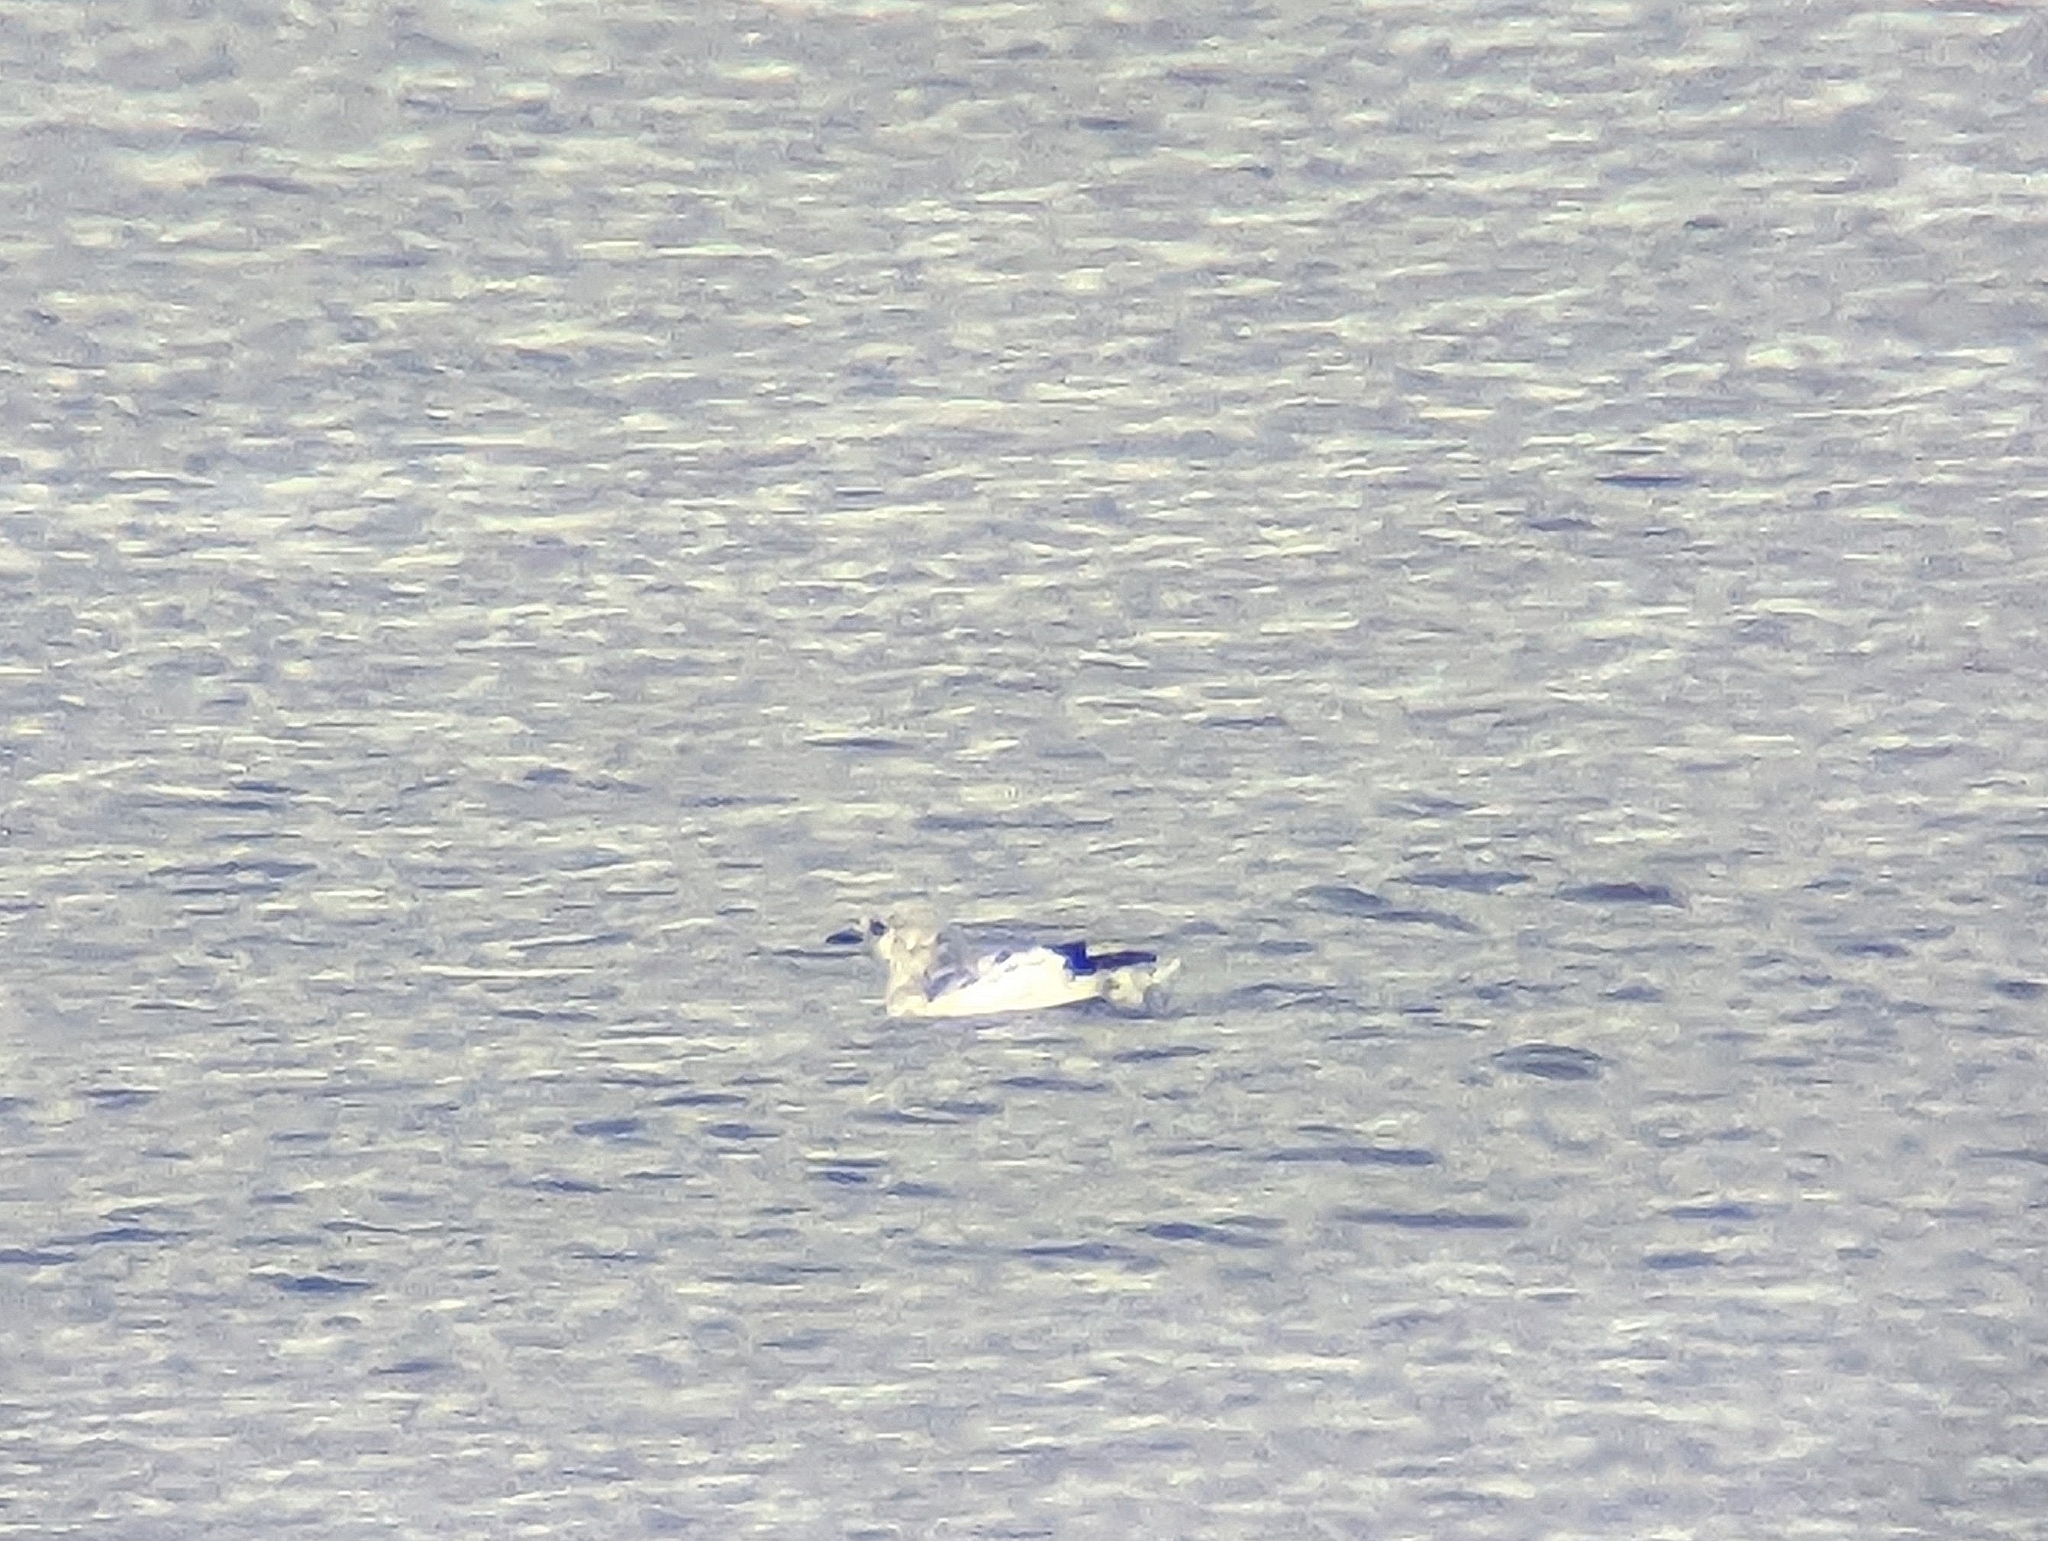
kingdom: Animalia
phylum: Chordata
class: Aves
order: Charadriiformes
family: Alcidae
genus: Cepphus
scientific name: Cepphus grylle
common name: Black guillemot
